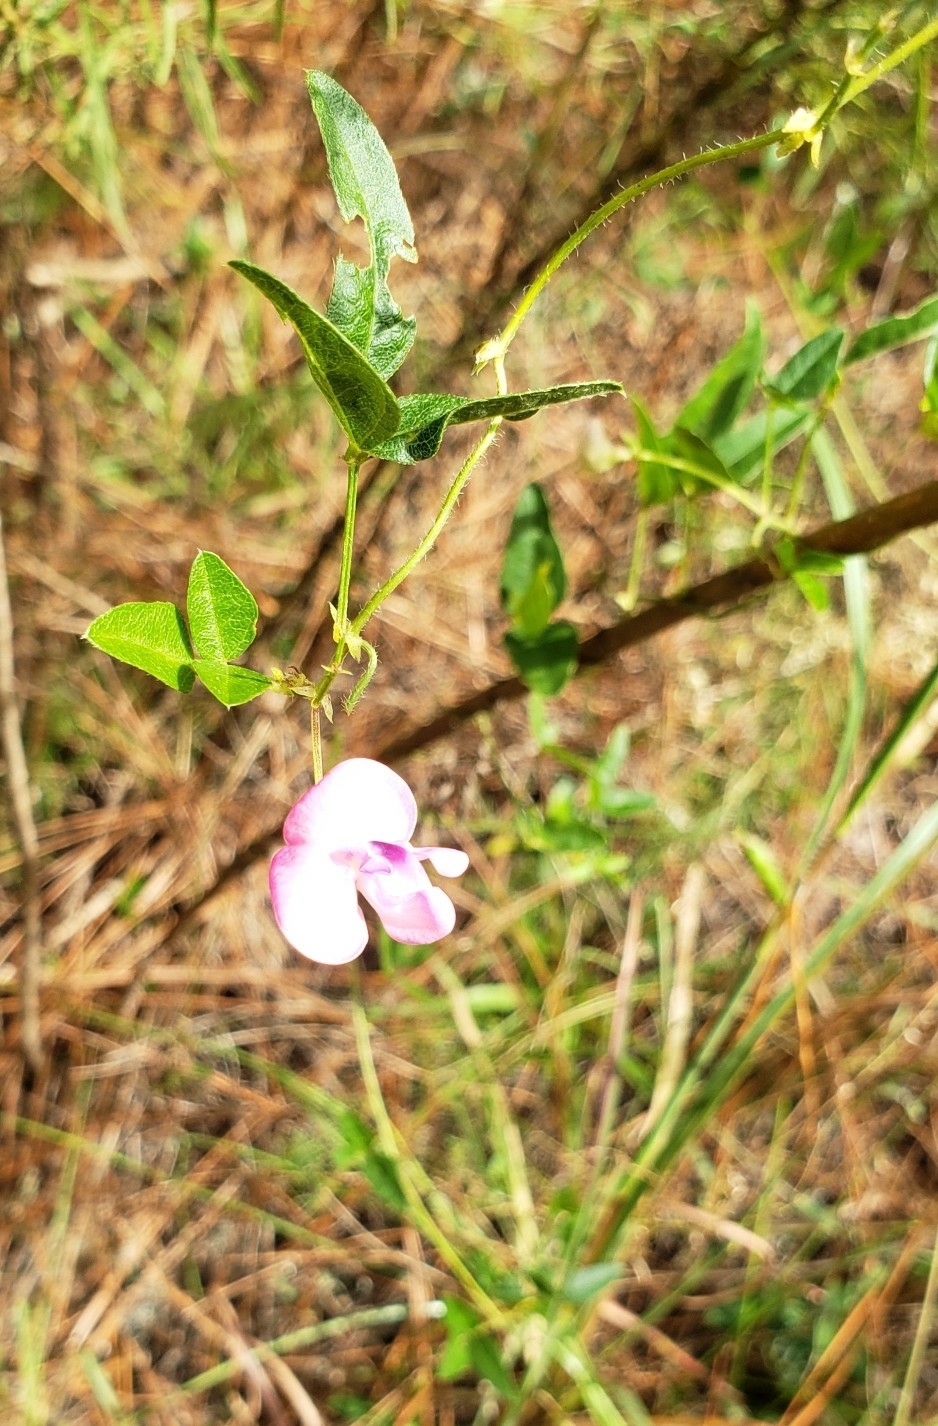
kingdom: Plantae
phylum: Tracheophyta
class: Magnoliopsida
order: Fabales
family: Fabaceae
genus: Strophostyles
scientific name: Strophostyles umbellata
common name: Perennial wild bean
